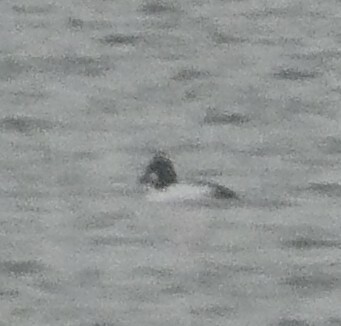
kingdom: Animalia
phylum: Chordata
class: Aves
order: Anseriformes
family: Anatidae
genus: Bucephala
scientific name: Bucephala clangula
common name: Common goldeneye
